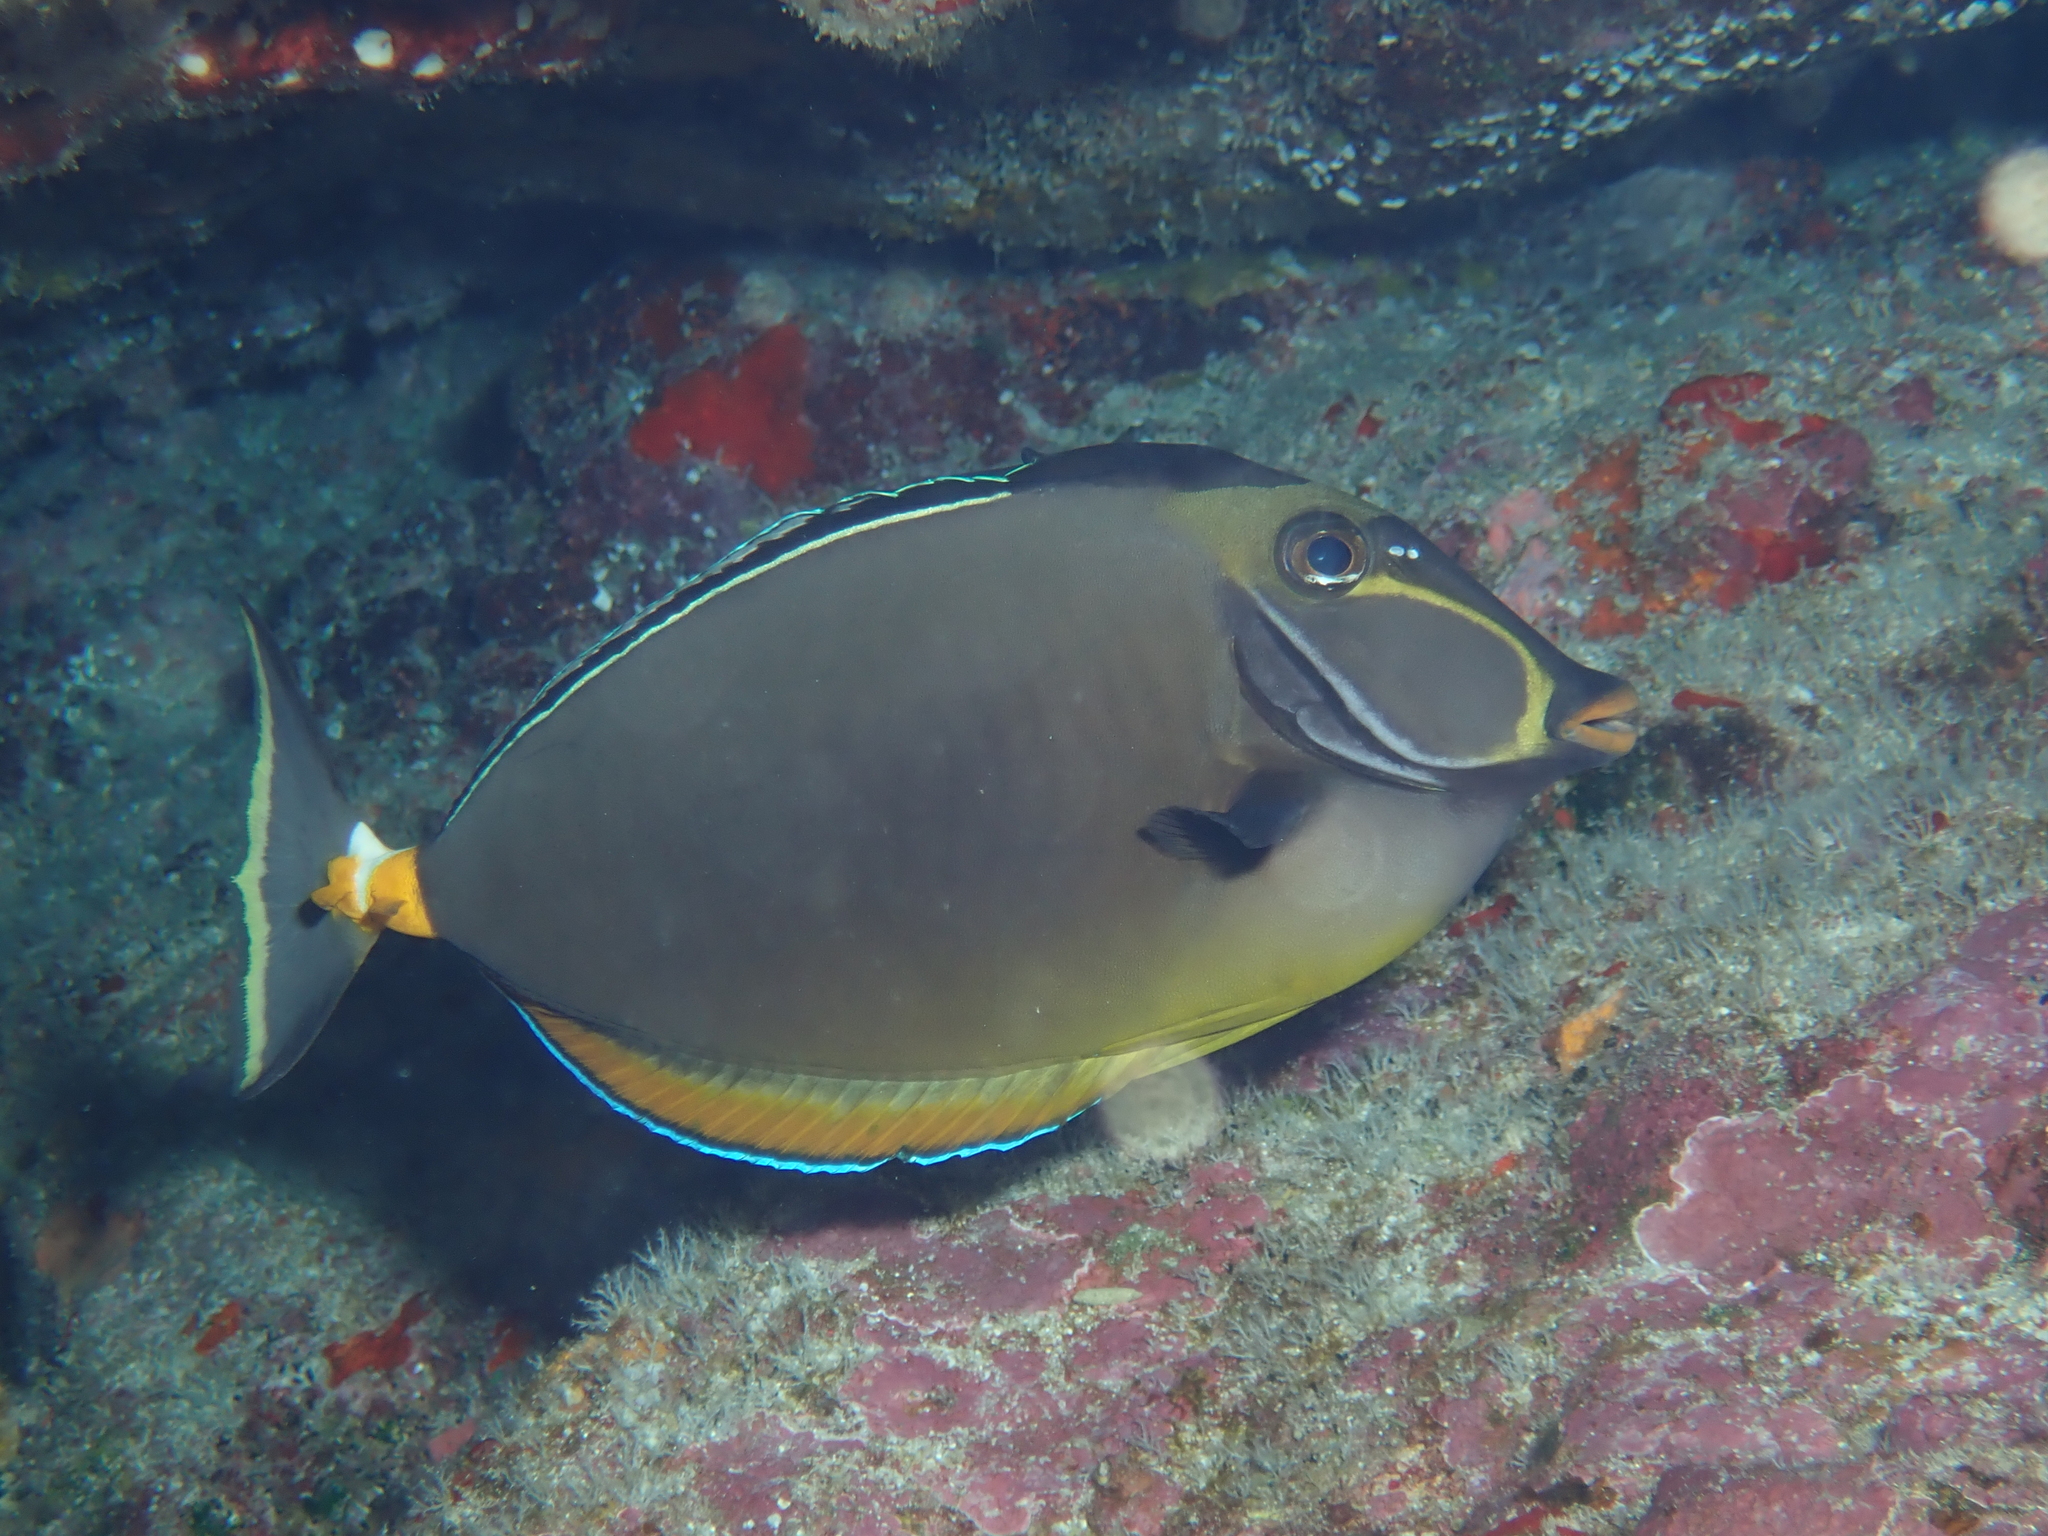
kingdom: Animalia
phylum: Chordata
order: Perciformes
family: Acanthuridae
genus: Naso
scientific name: Naso lituratus
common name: Orangespine unicornfish
